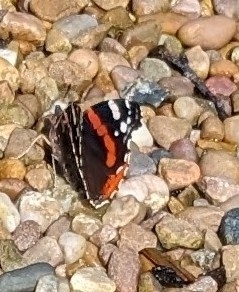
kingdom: Animalia
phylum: Arthropoda
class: Insecta
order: Lepidoptera
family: Nymphalidae
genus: Vanessa
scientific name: Vanessa atalanta
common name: Red admiral
